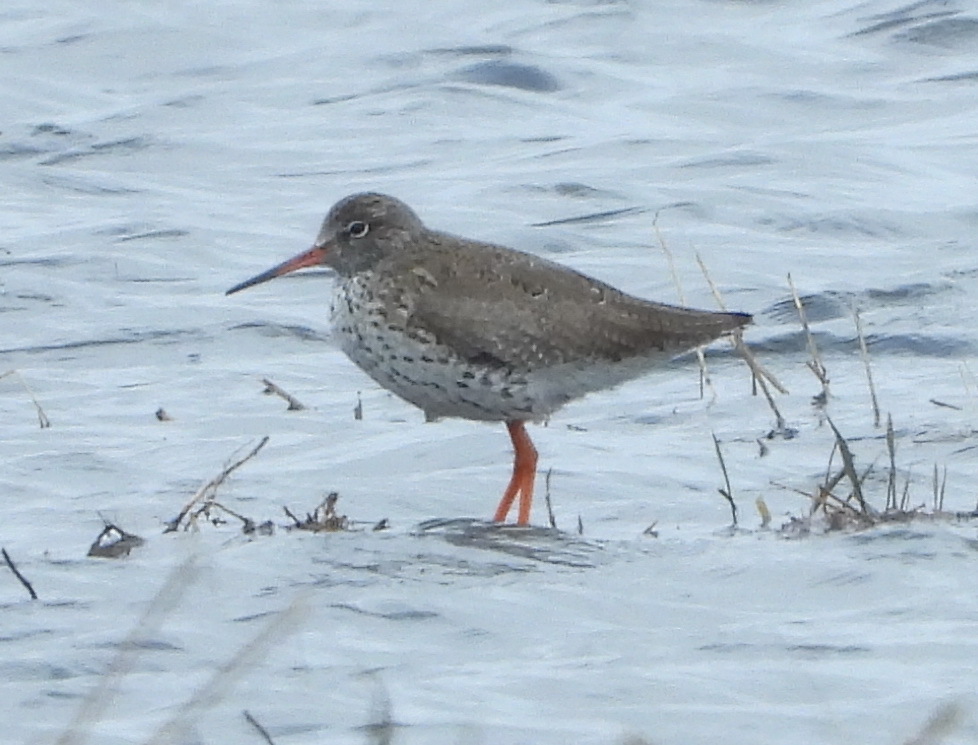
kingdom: Animalia
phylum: Chordata
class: Aves
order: Charadriiformes
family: Scolopacidae
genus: Tringa
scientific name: Tringa totanus
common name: Common redshank
